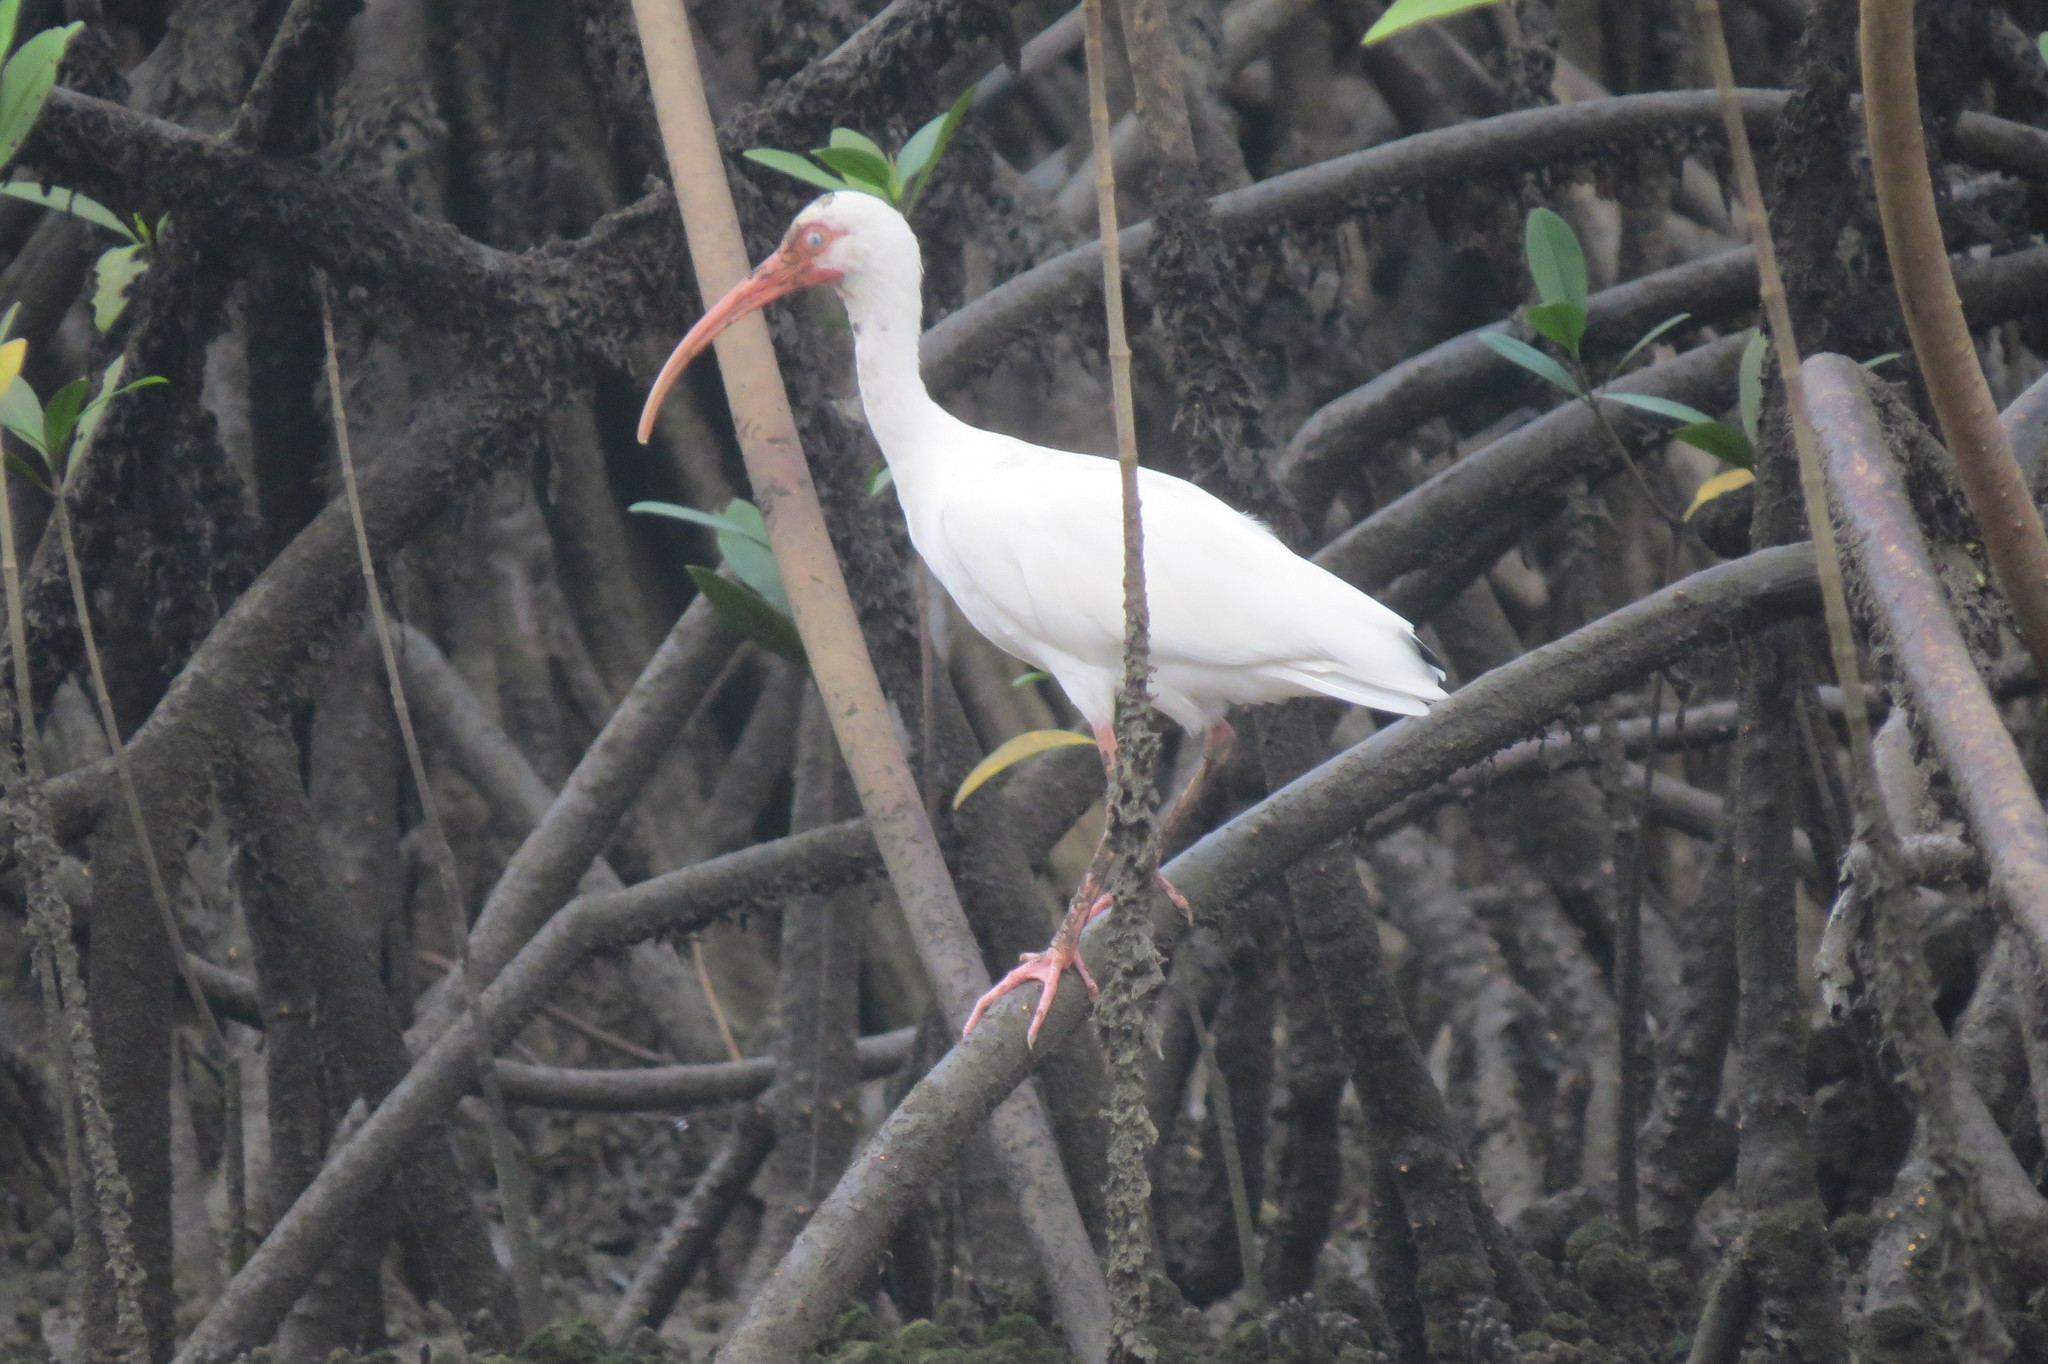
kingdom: Animalia
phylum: Chordata
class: Aves
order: Pelecaniformes
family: Threskiornithidae
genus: Eudocimus
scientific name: Eudocimus albus
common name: White ibis
